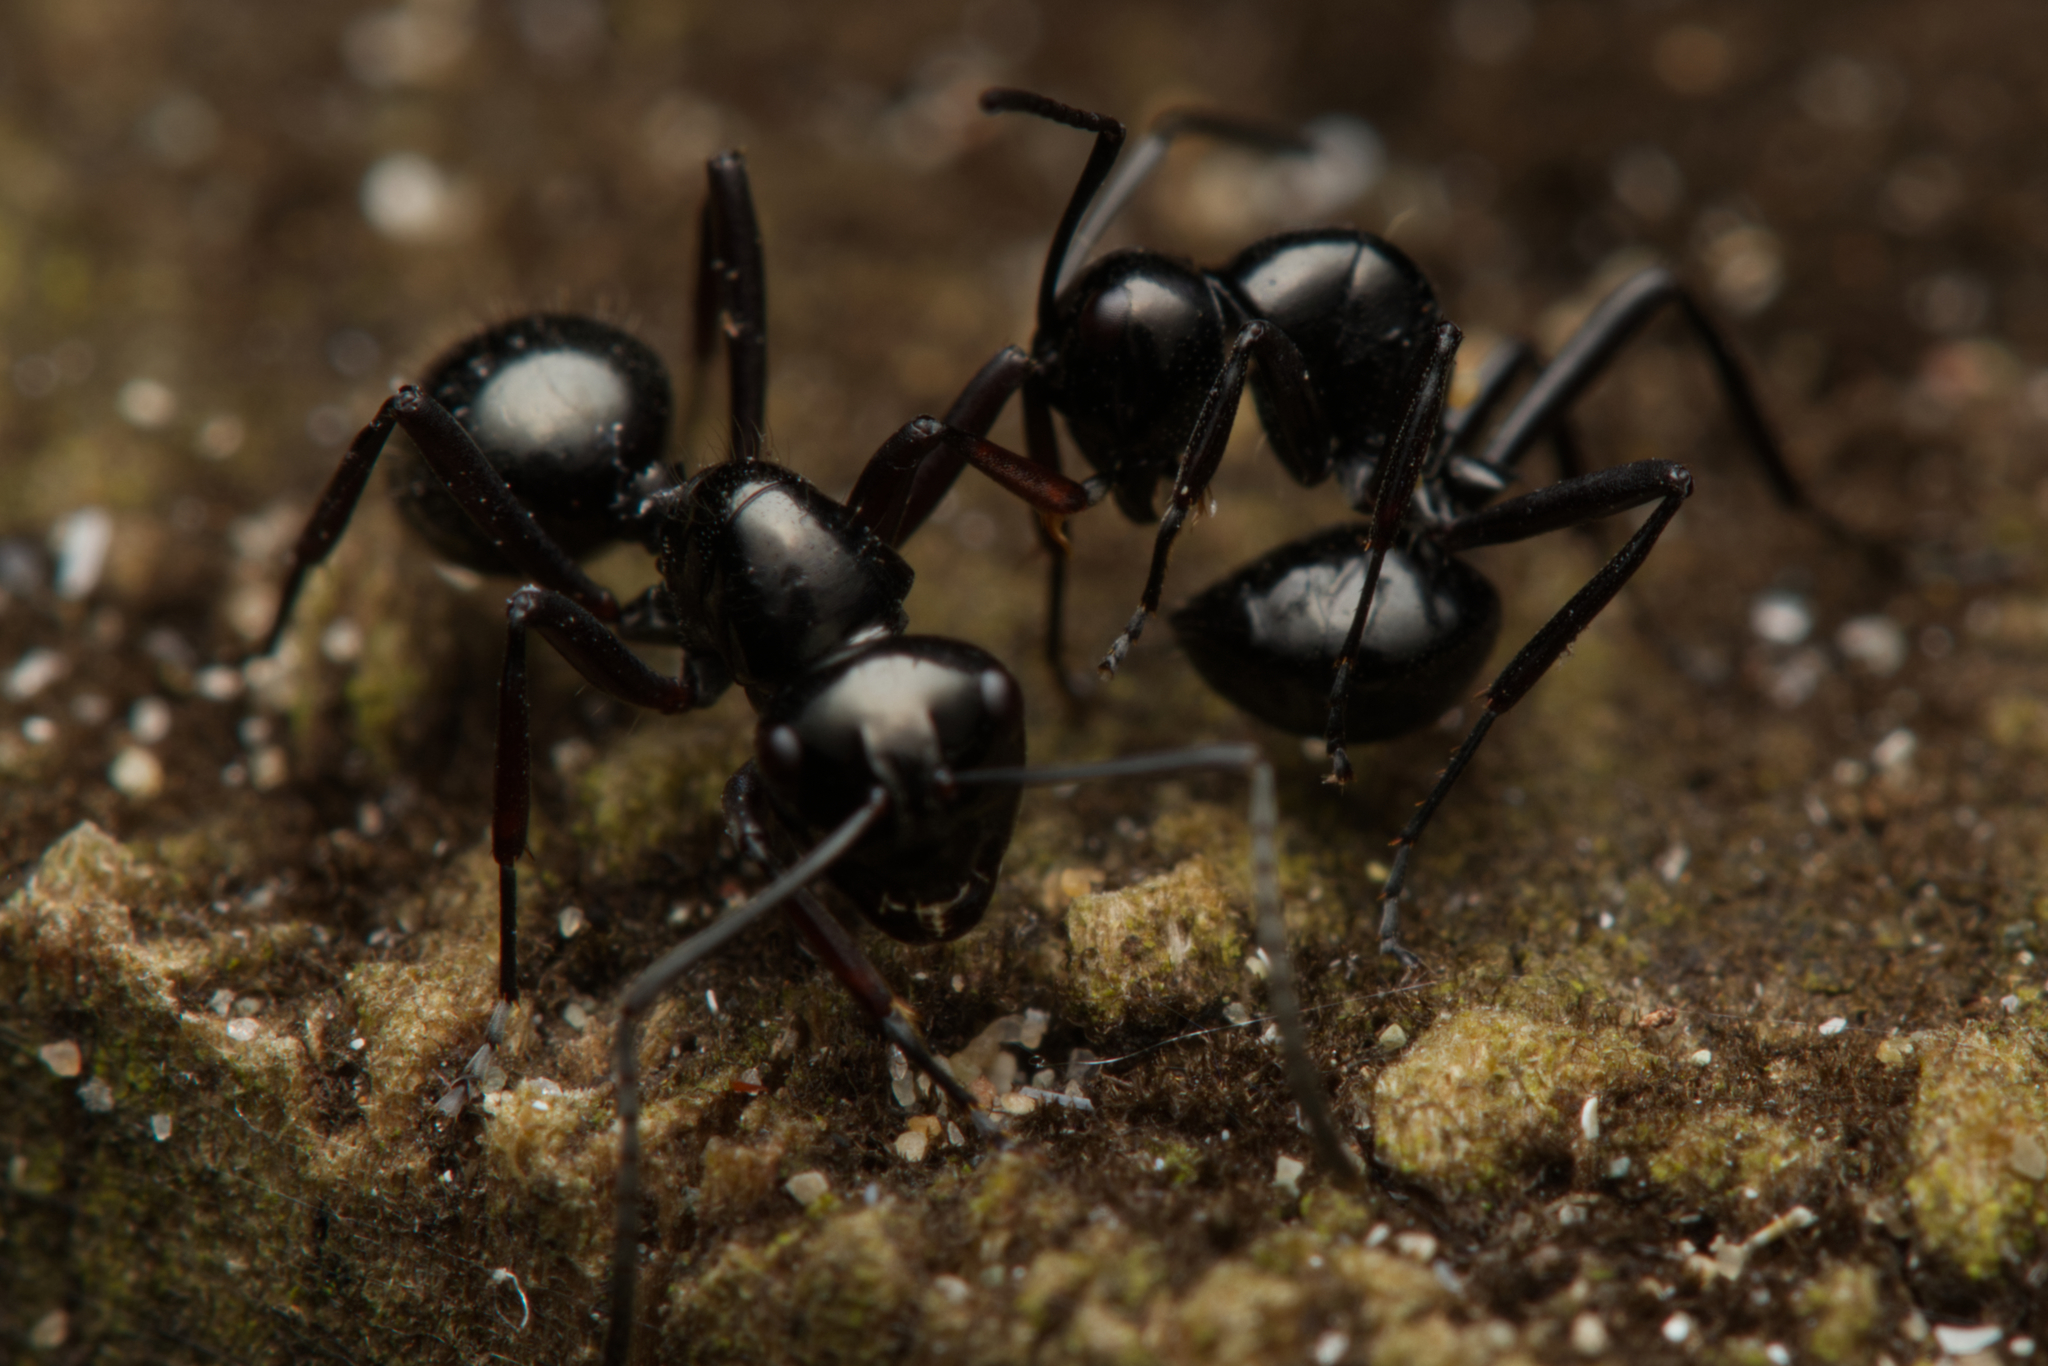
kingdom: Animalia
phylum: Arthropoda
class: Insecta
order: Hymenoptera
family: Formicidae
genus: Polyrhachis
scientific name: Polyrhachis pilosa
